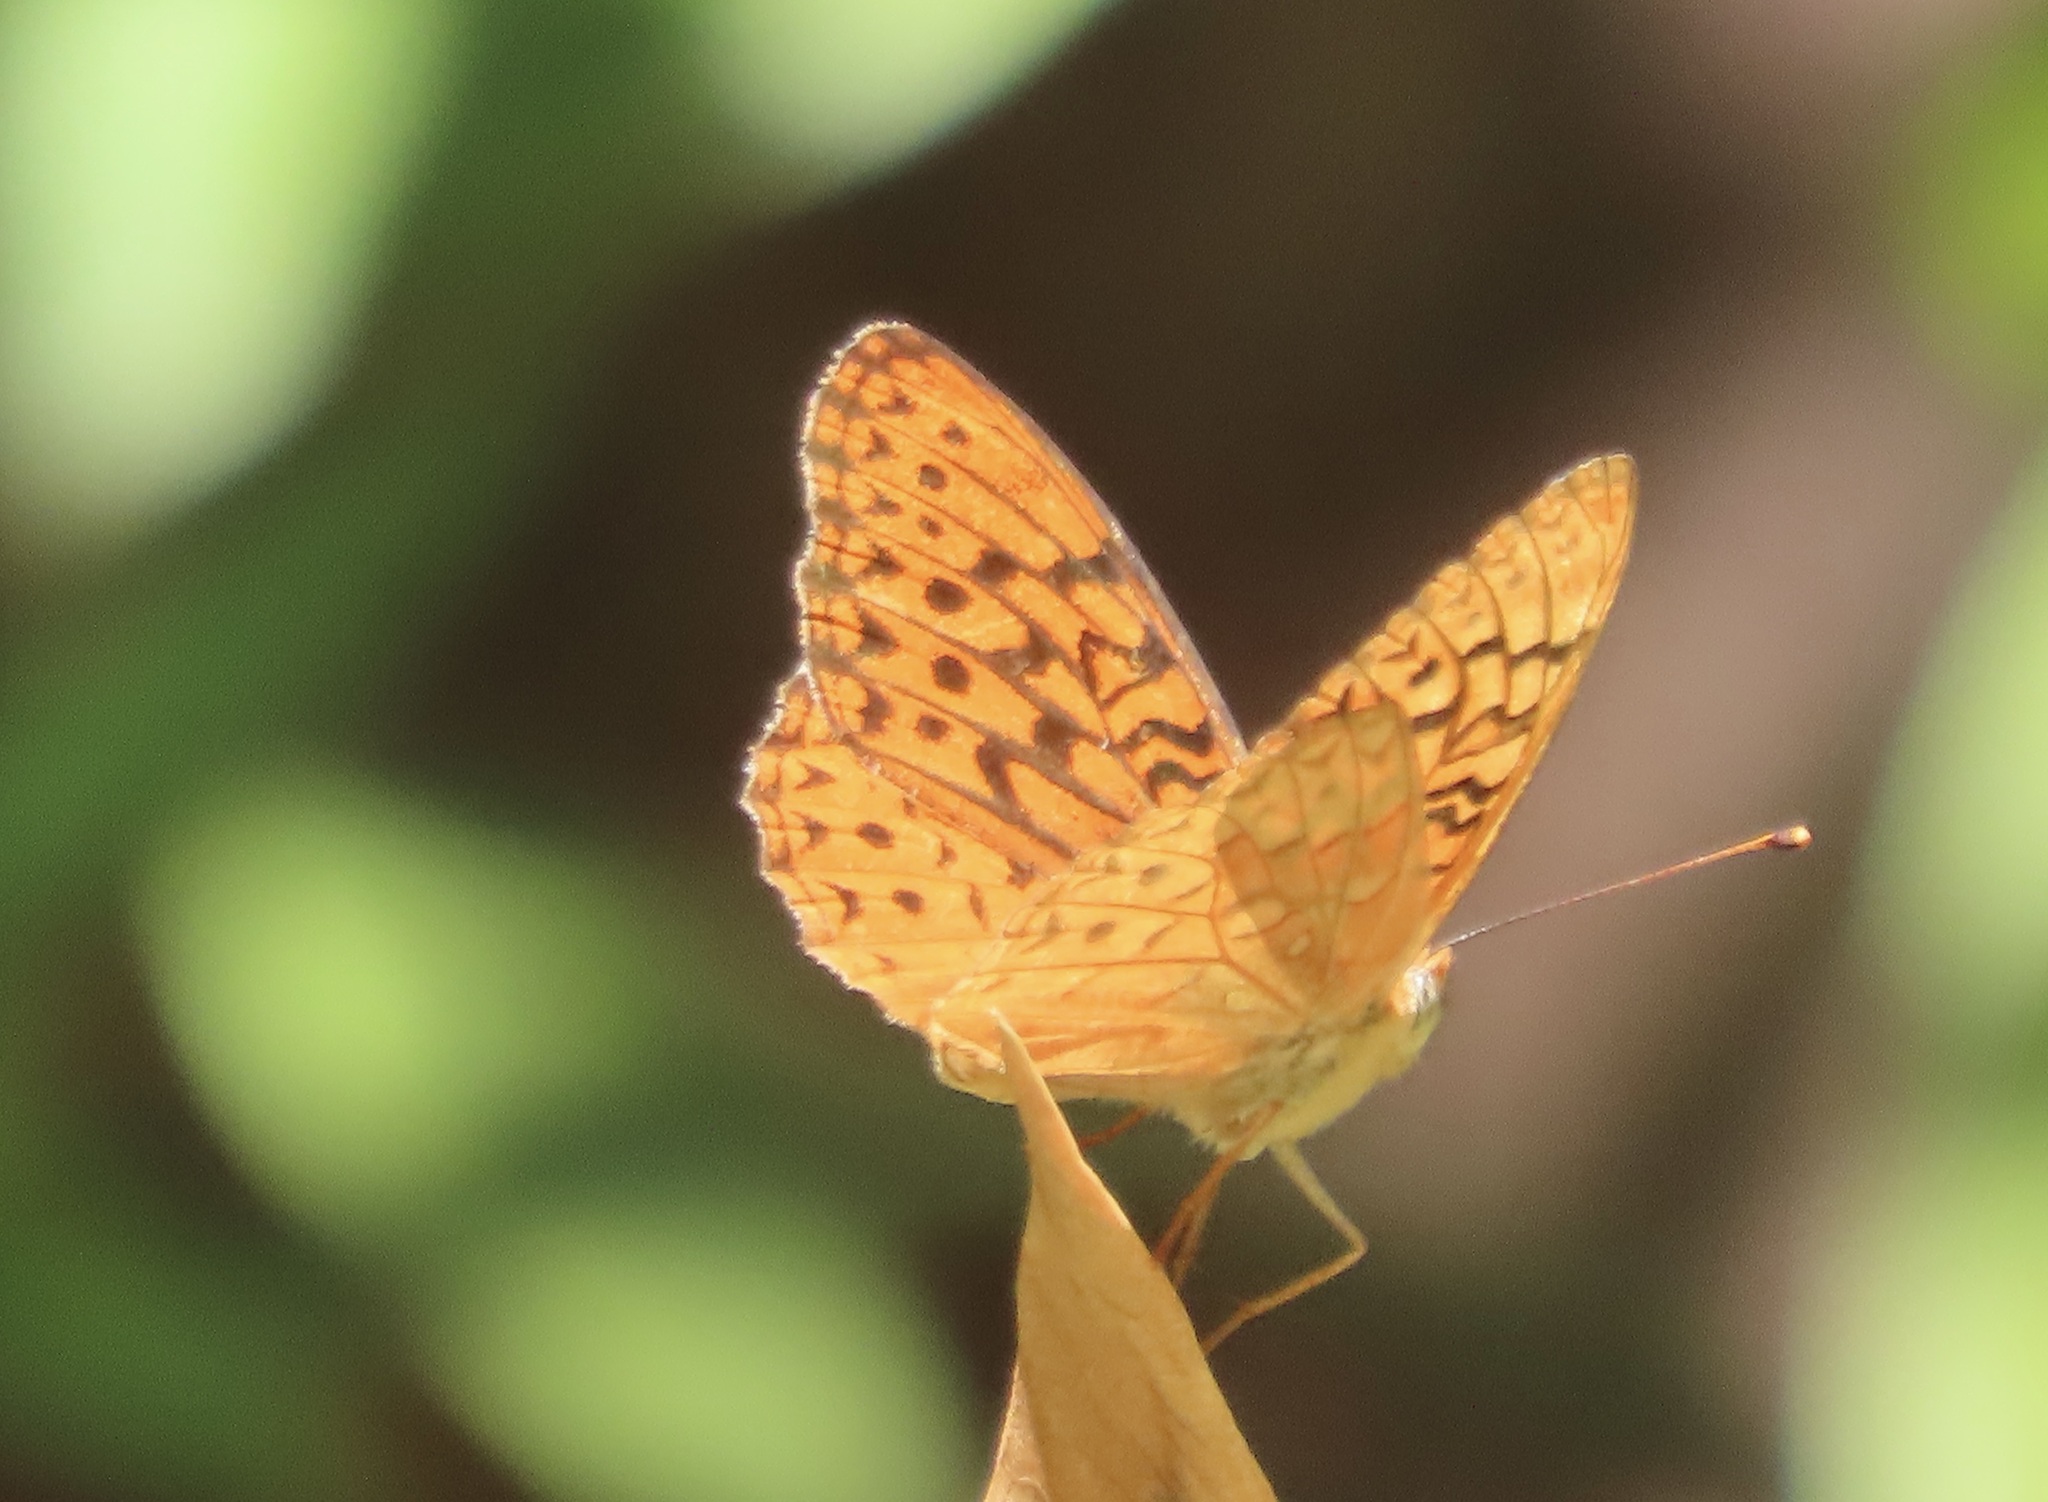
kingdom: Animalia
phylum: Arthropoda
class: Insecta
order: Lepidoptera
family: Nymphalidae
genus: Speyeria
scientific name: Speyeria adiaste
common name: Unsilvered fritillary
